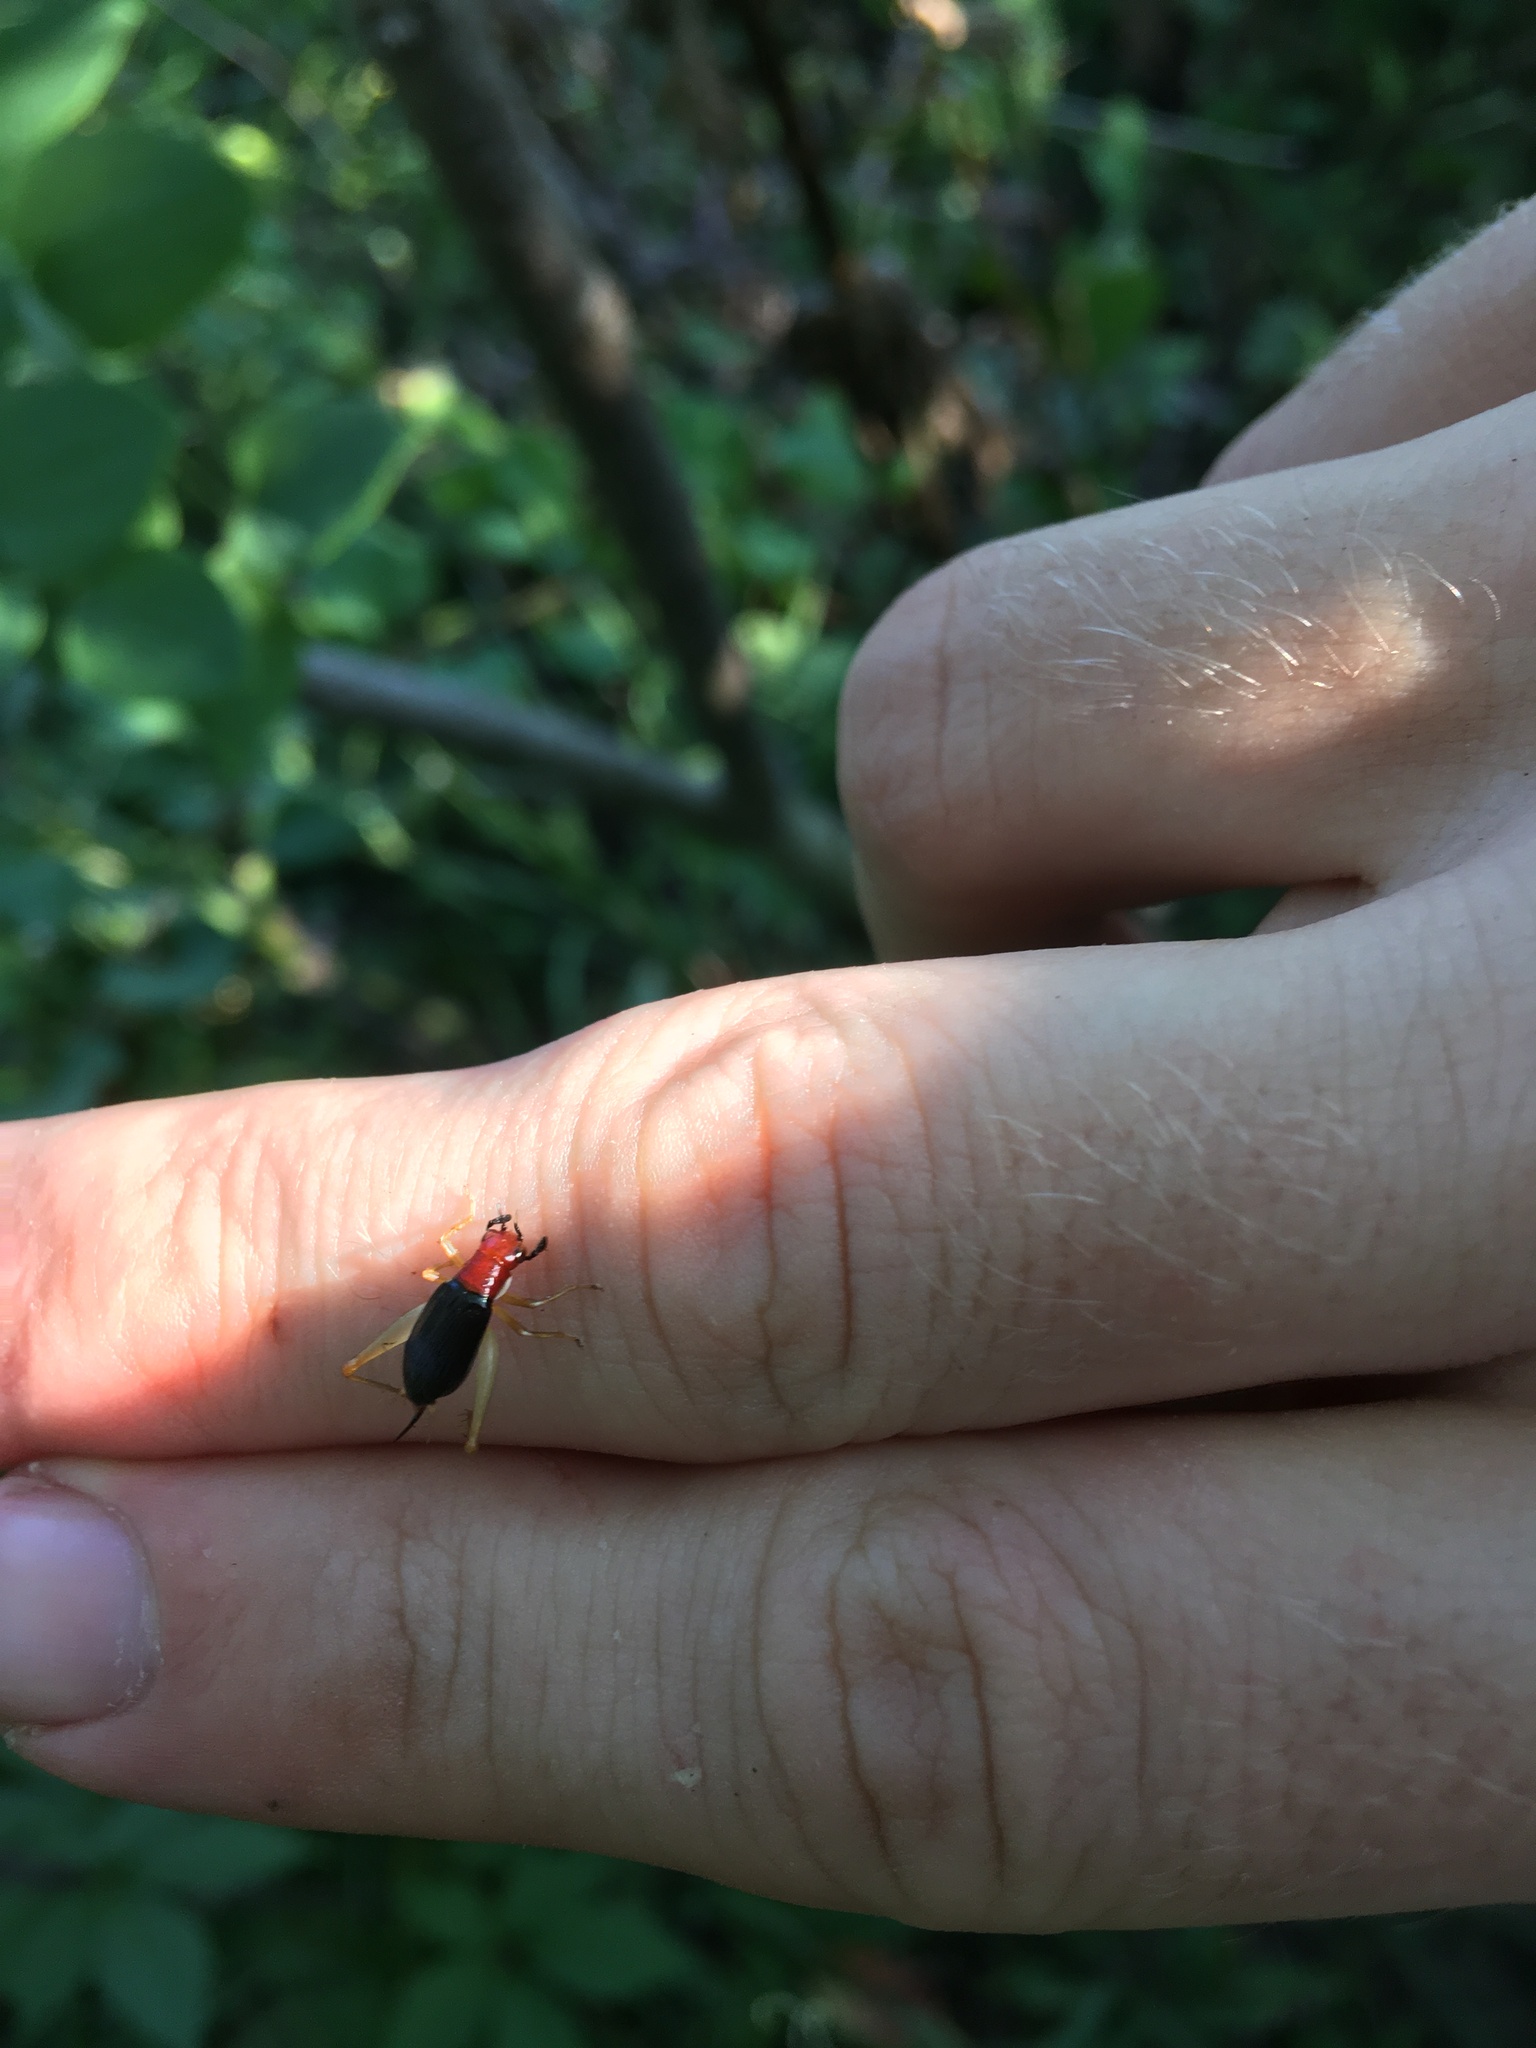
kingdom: Animalia
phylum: Arthropoda
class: Insecta
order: Orthoptera
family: Trigonidiidae
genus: Phyllopalpus
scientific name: Phyllopalpus pulchellus
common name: Handsome trig
